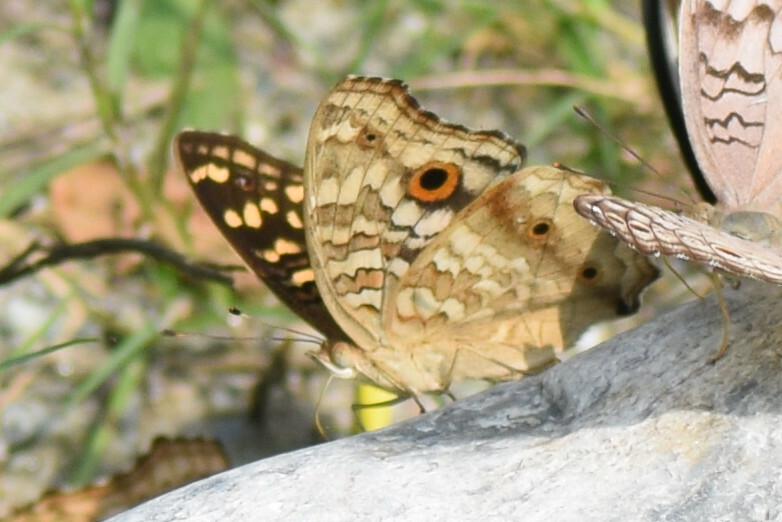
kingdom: Animalia
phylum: Arthropoda
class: Insecta
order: Lepidoptera
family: Nymphalidae
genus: Junonia
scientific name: Junonia lemonias
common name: Lemon pansy
